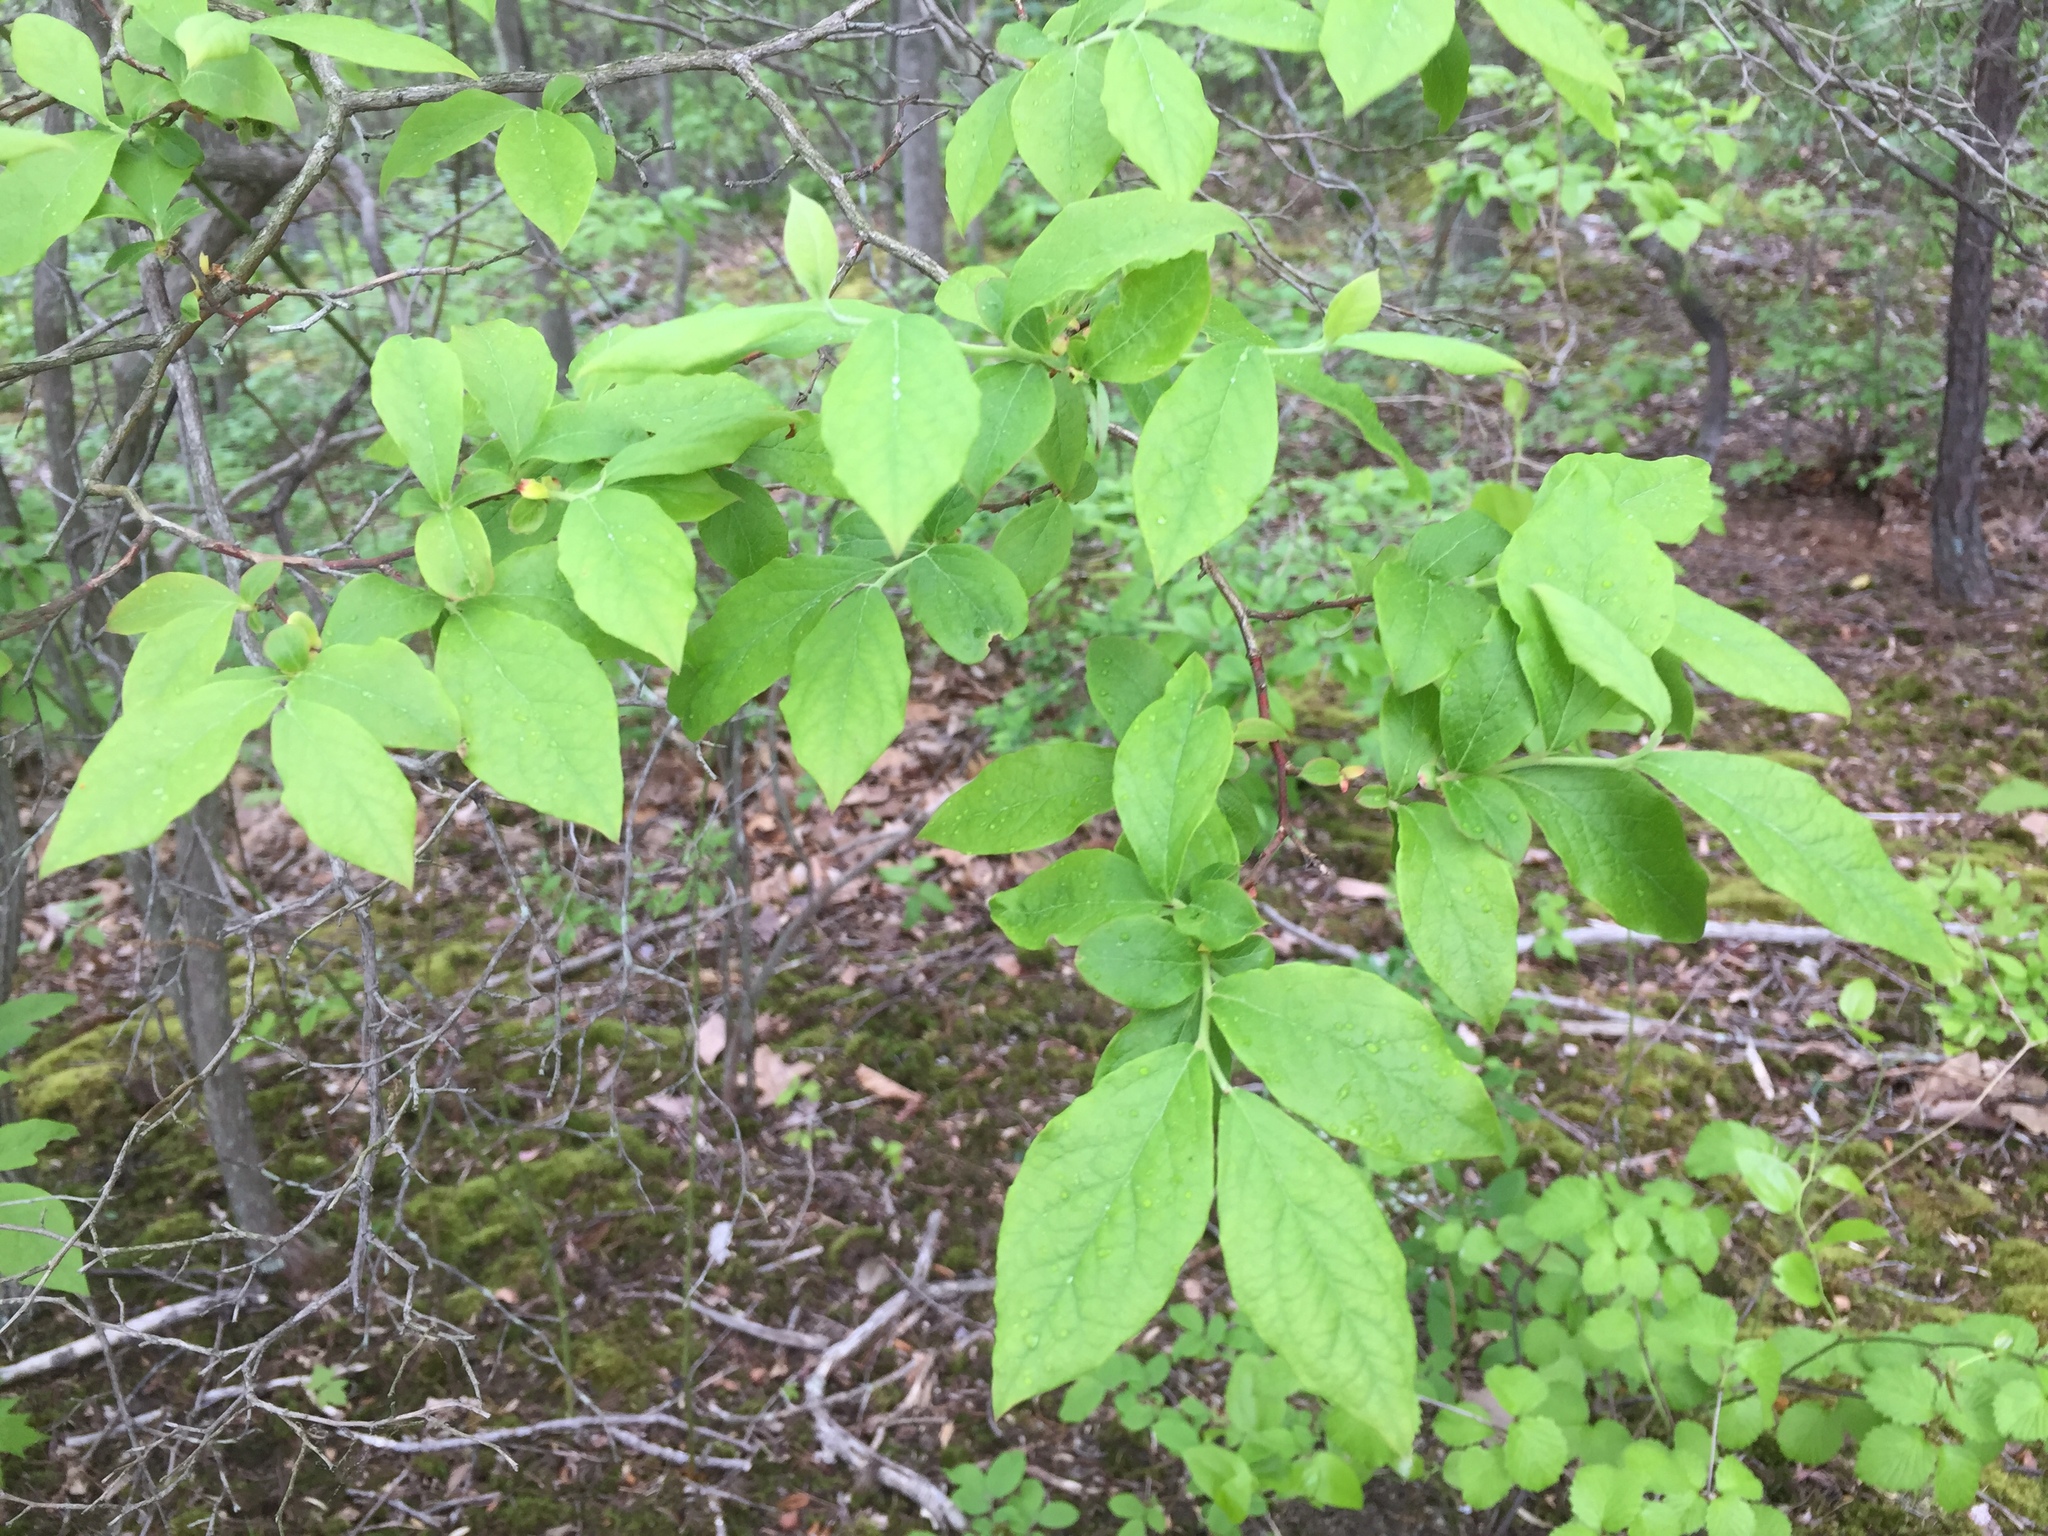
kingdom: Plantae
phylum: Tracheophyta
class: Magnoliopsida
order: Laurales
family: Lauraceae
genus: Lindera
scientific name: Lindera benzoin
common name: Spicebush
